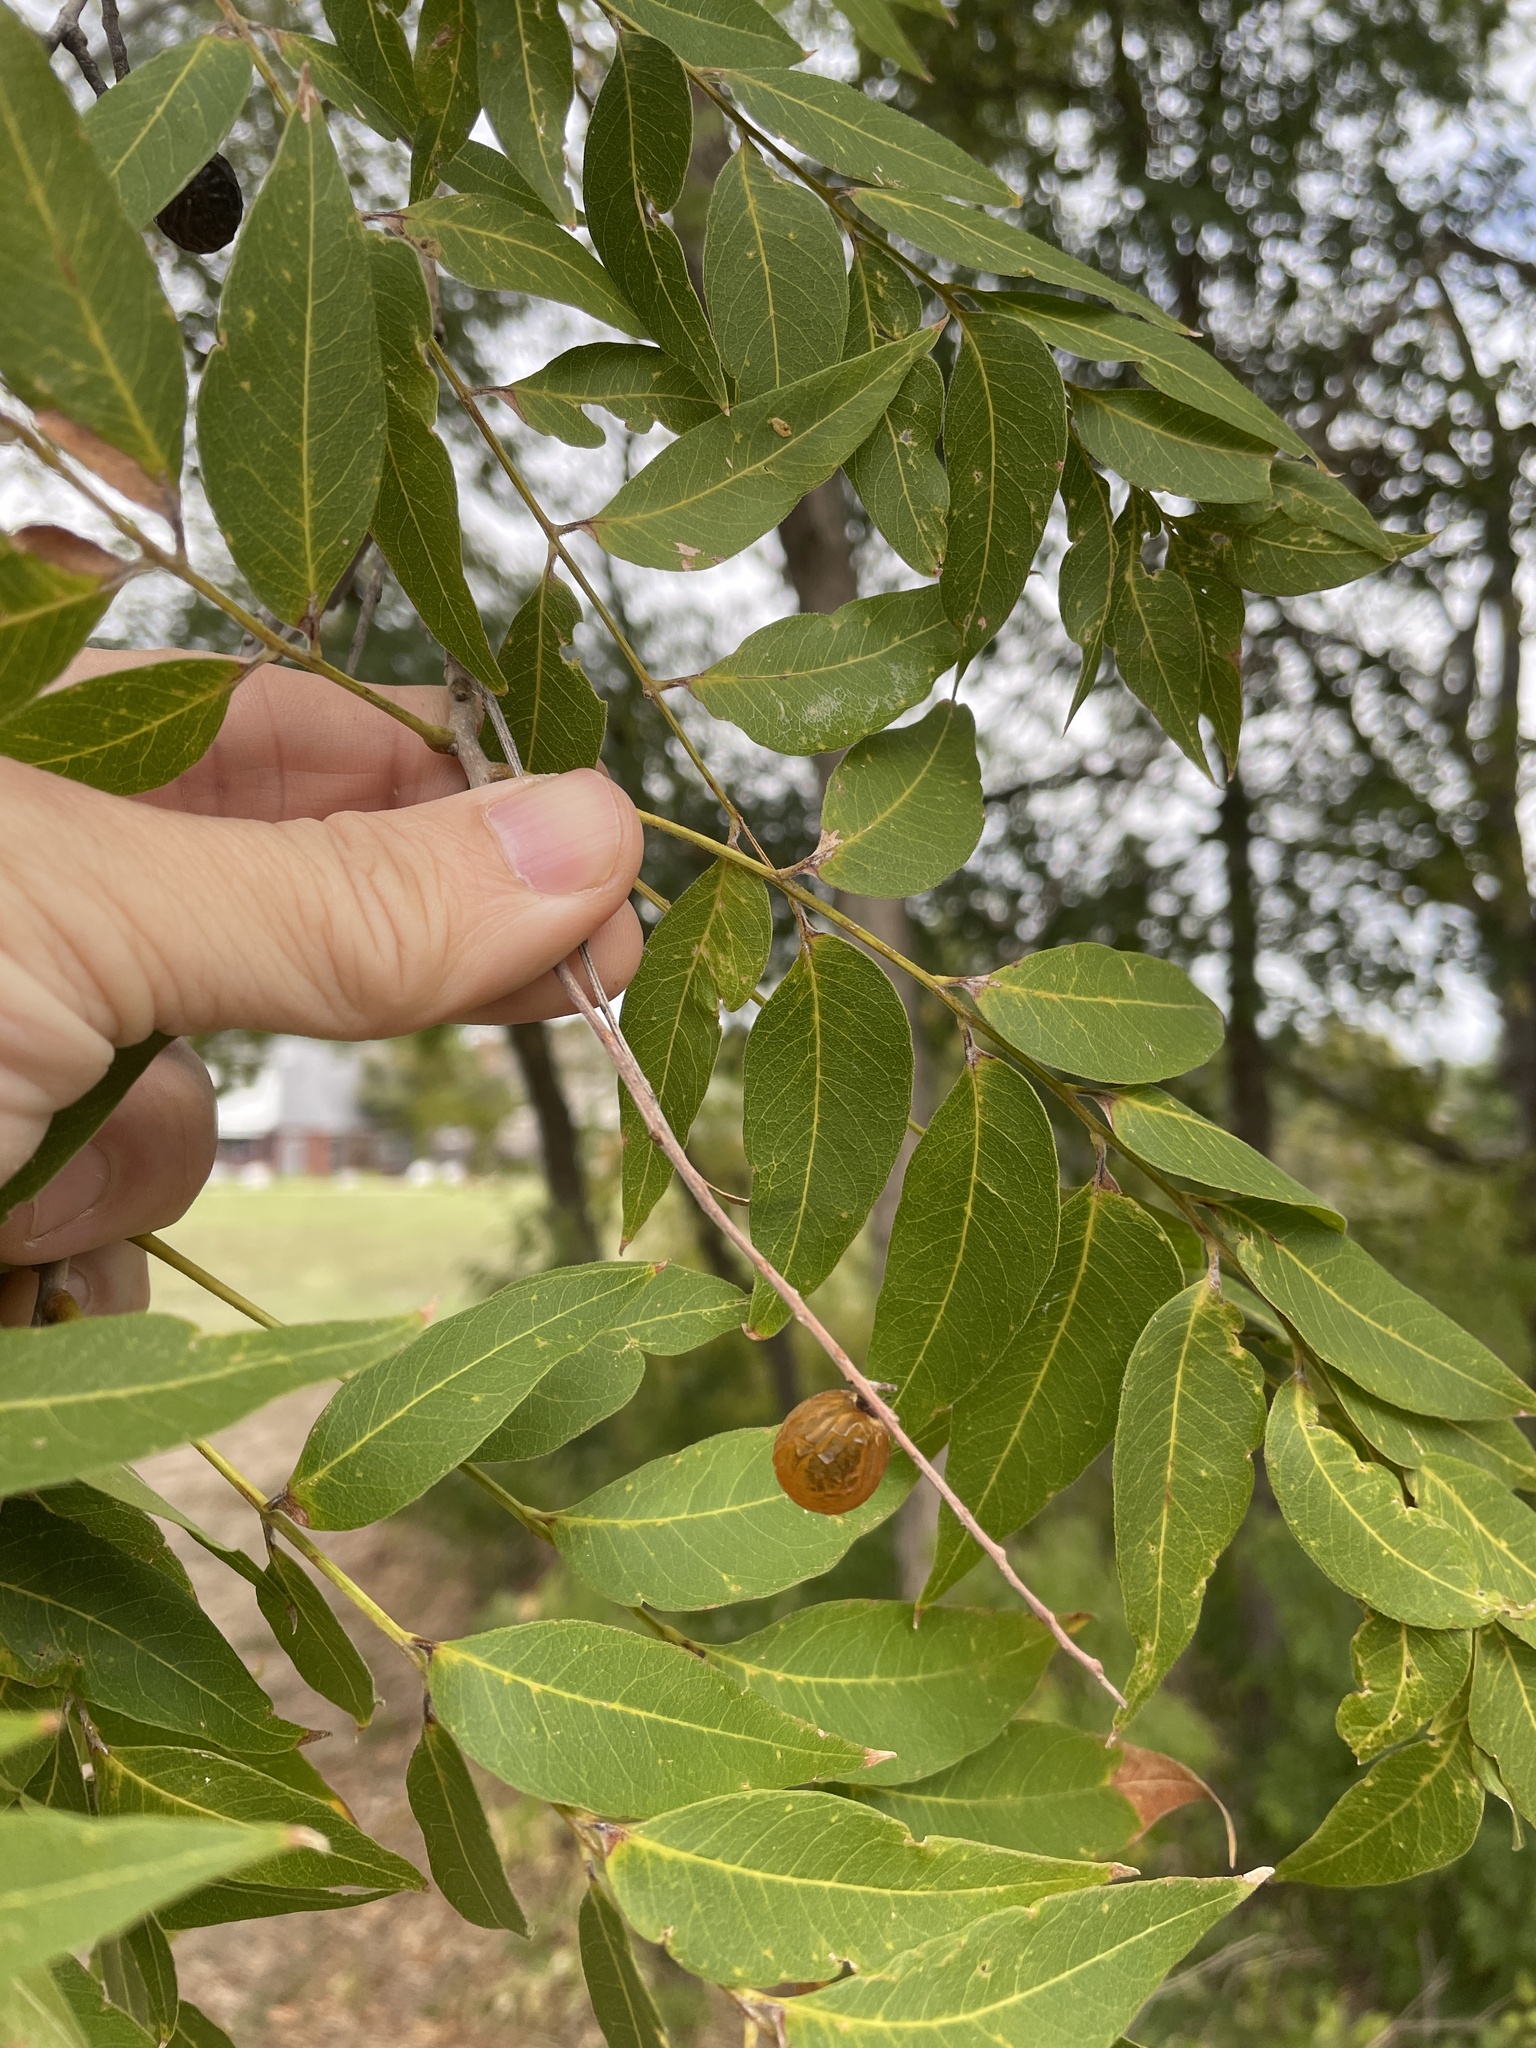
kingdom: Plantae
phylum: Tracheophyta
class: Magnoliopsida
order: Sapindales
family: Sapindaceae
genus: Sapindus
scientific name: Sapindus drummondii
